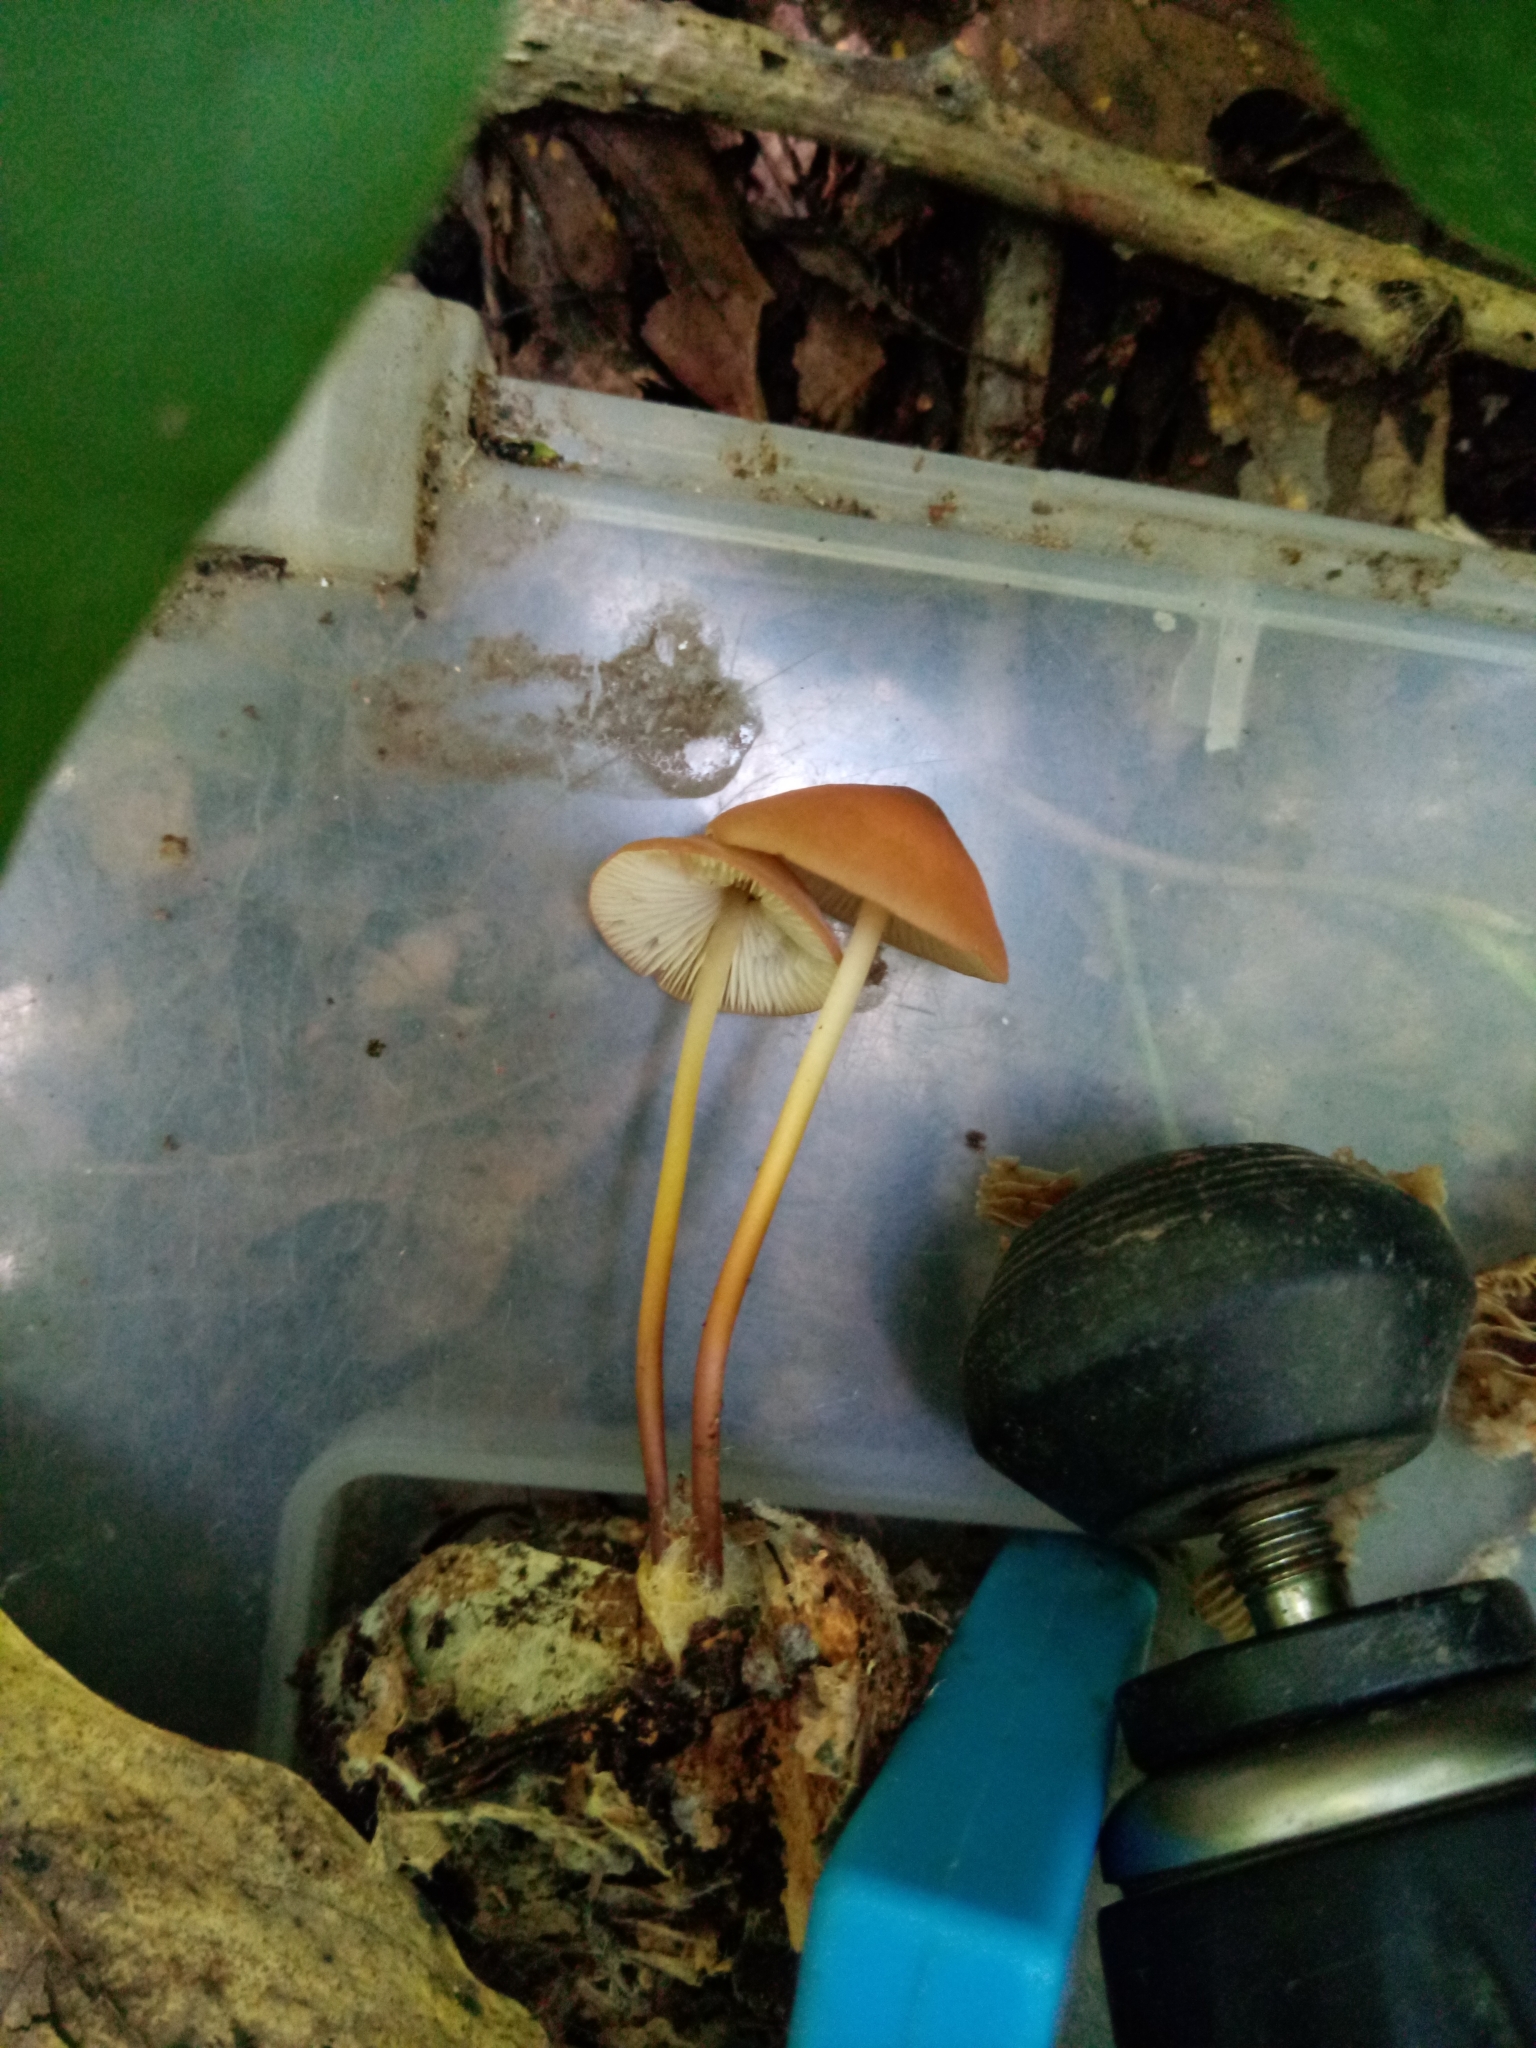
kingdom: Fungi
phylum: Basidiomycota
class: Agaricomycetes
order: Agaricales
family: Marasmiaceae
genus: Marasmius
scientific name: Marasmius sullivantii
